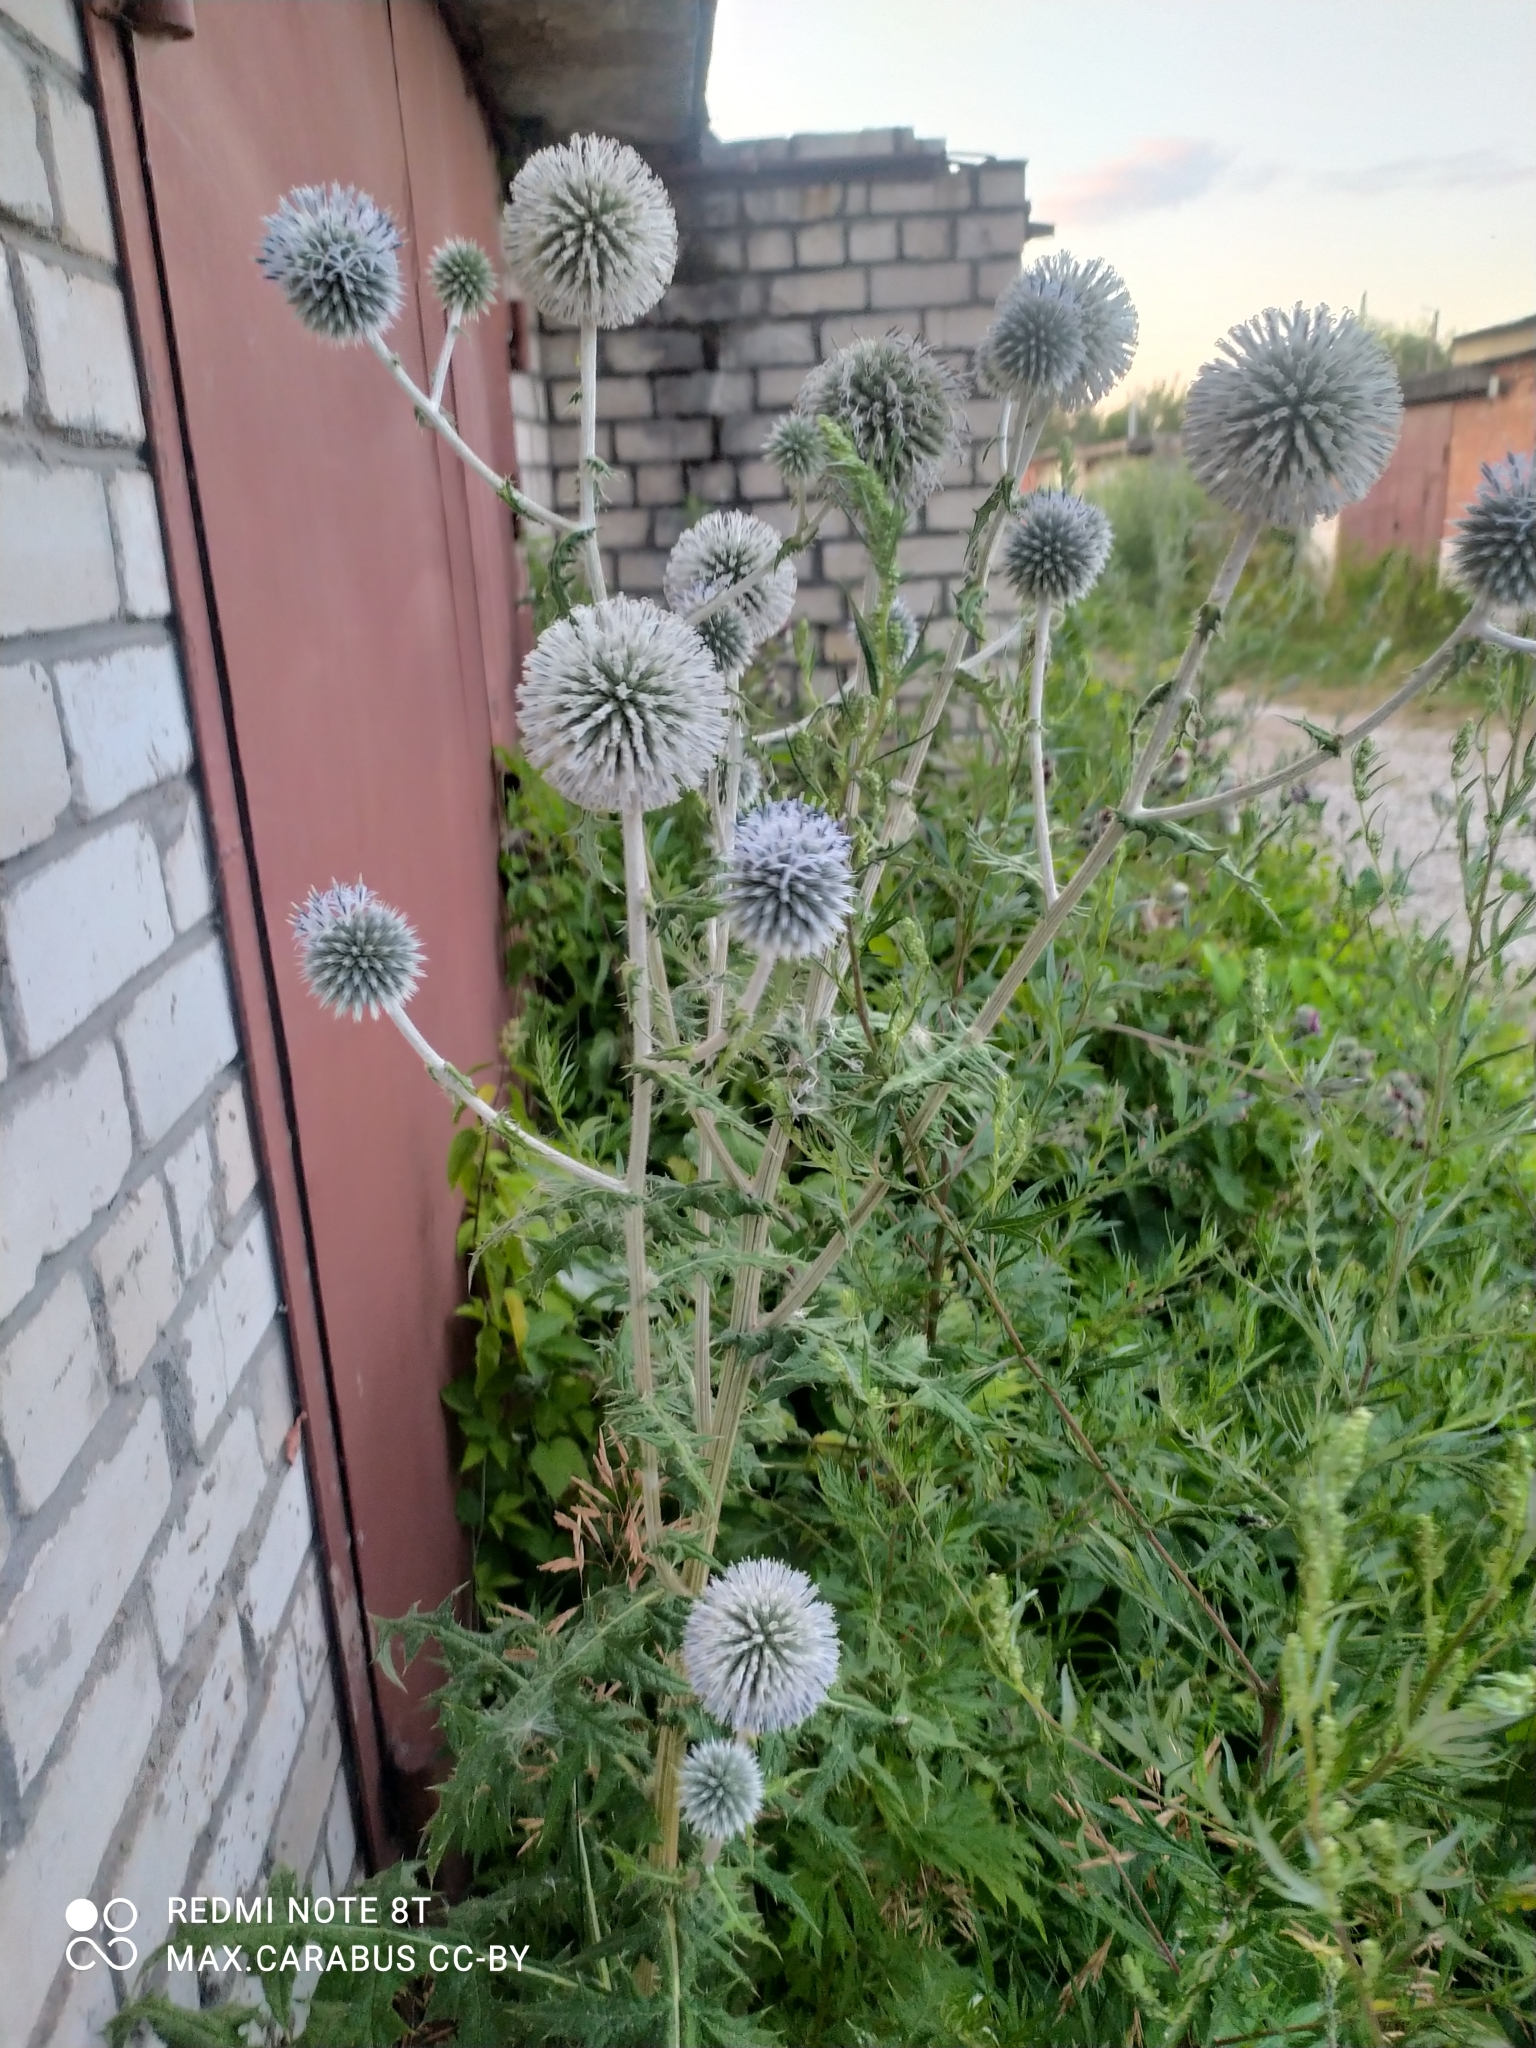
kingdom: Plantae
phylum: Tracheophyta
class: Magnoliopsida
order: Asterales
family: Asteraceae
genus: Echinops
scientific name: Echinops sphaerocephalus
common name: Glandular globe-thistle
